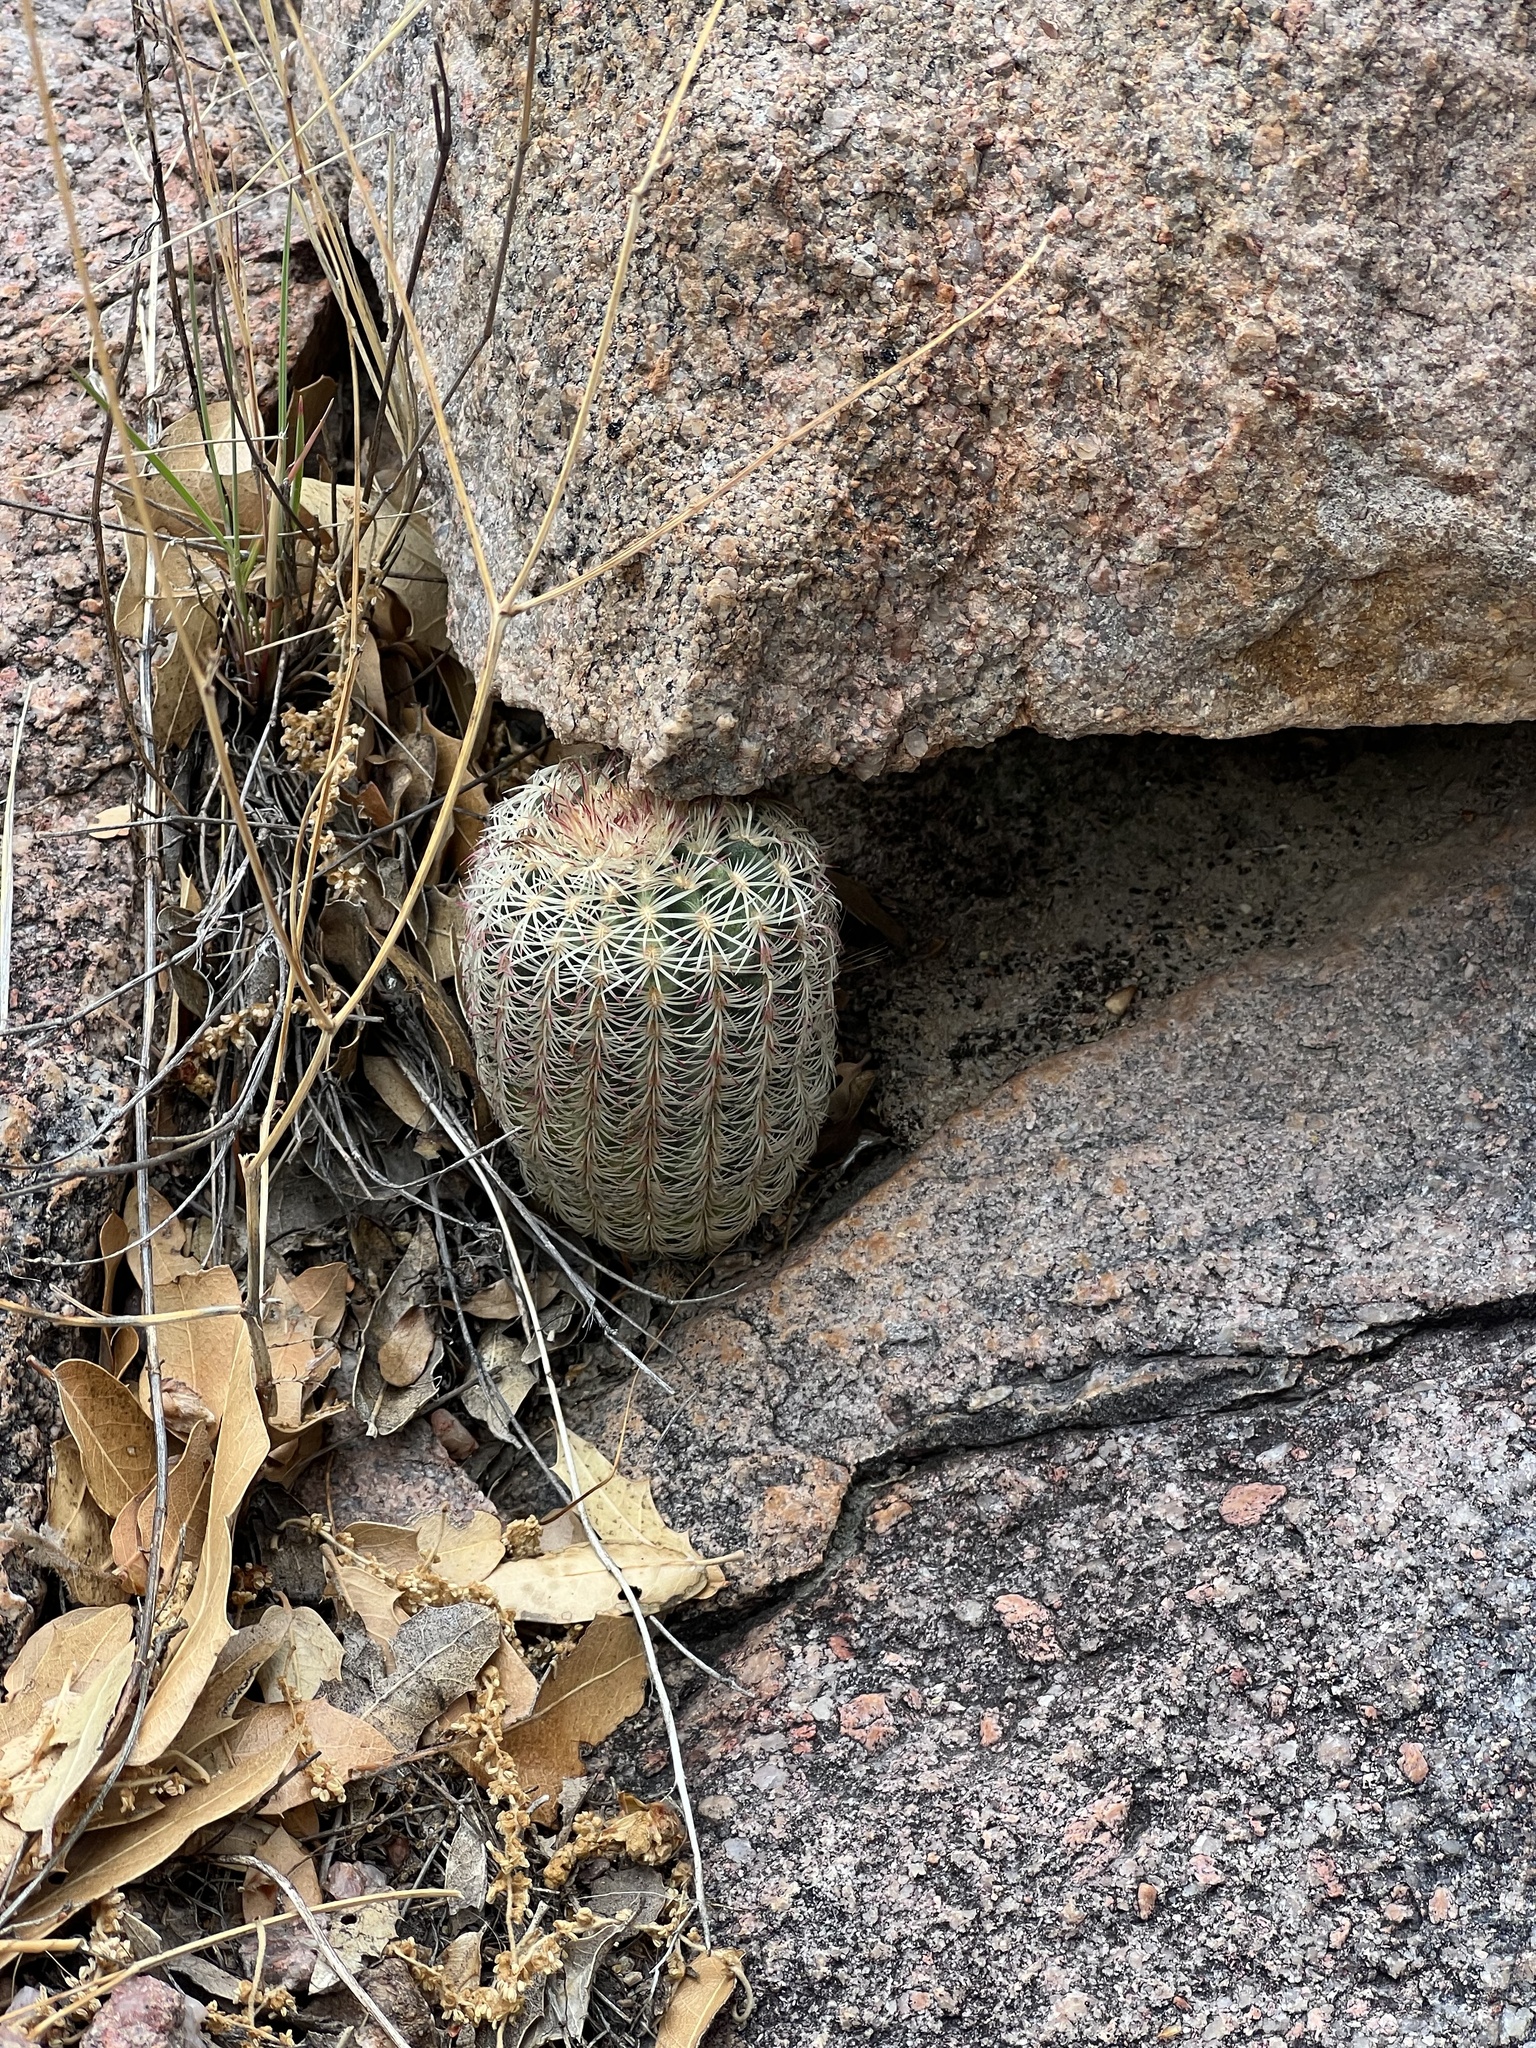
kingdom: Plantae
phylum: Tracheophyta
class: Magnoliopsida
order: Caryophyllales
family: Cactaceae
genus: Echinocereus
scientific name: Echinocereus rigidissimus
